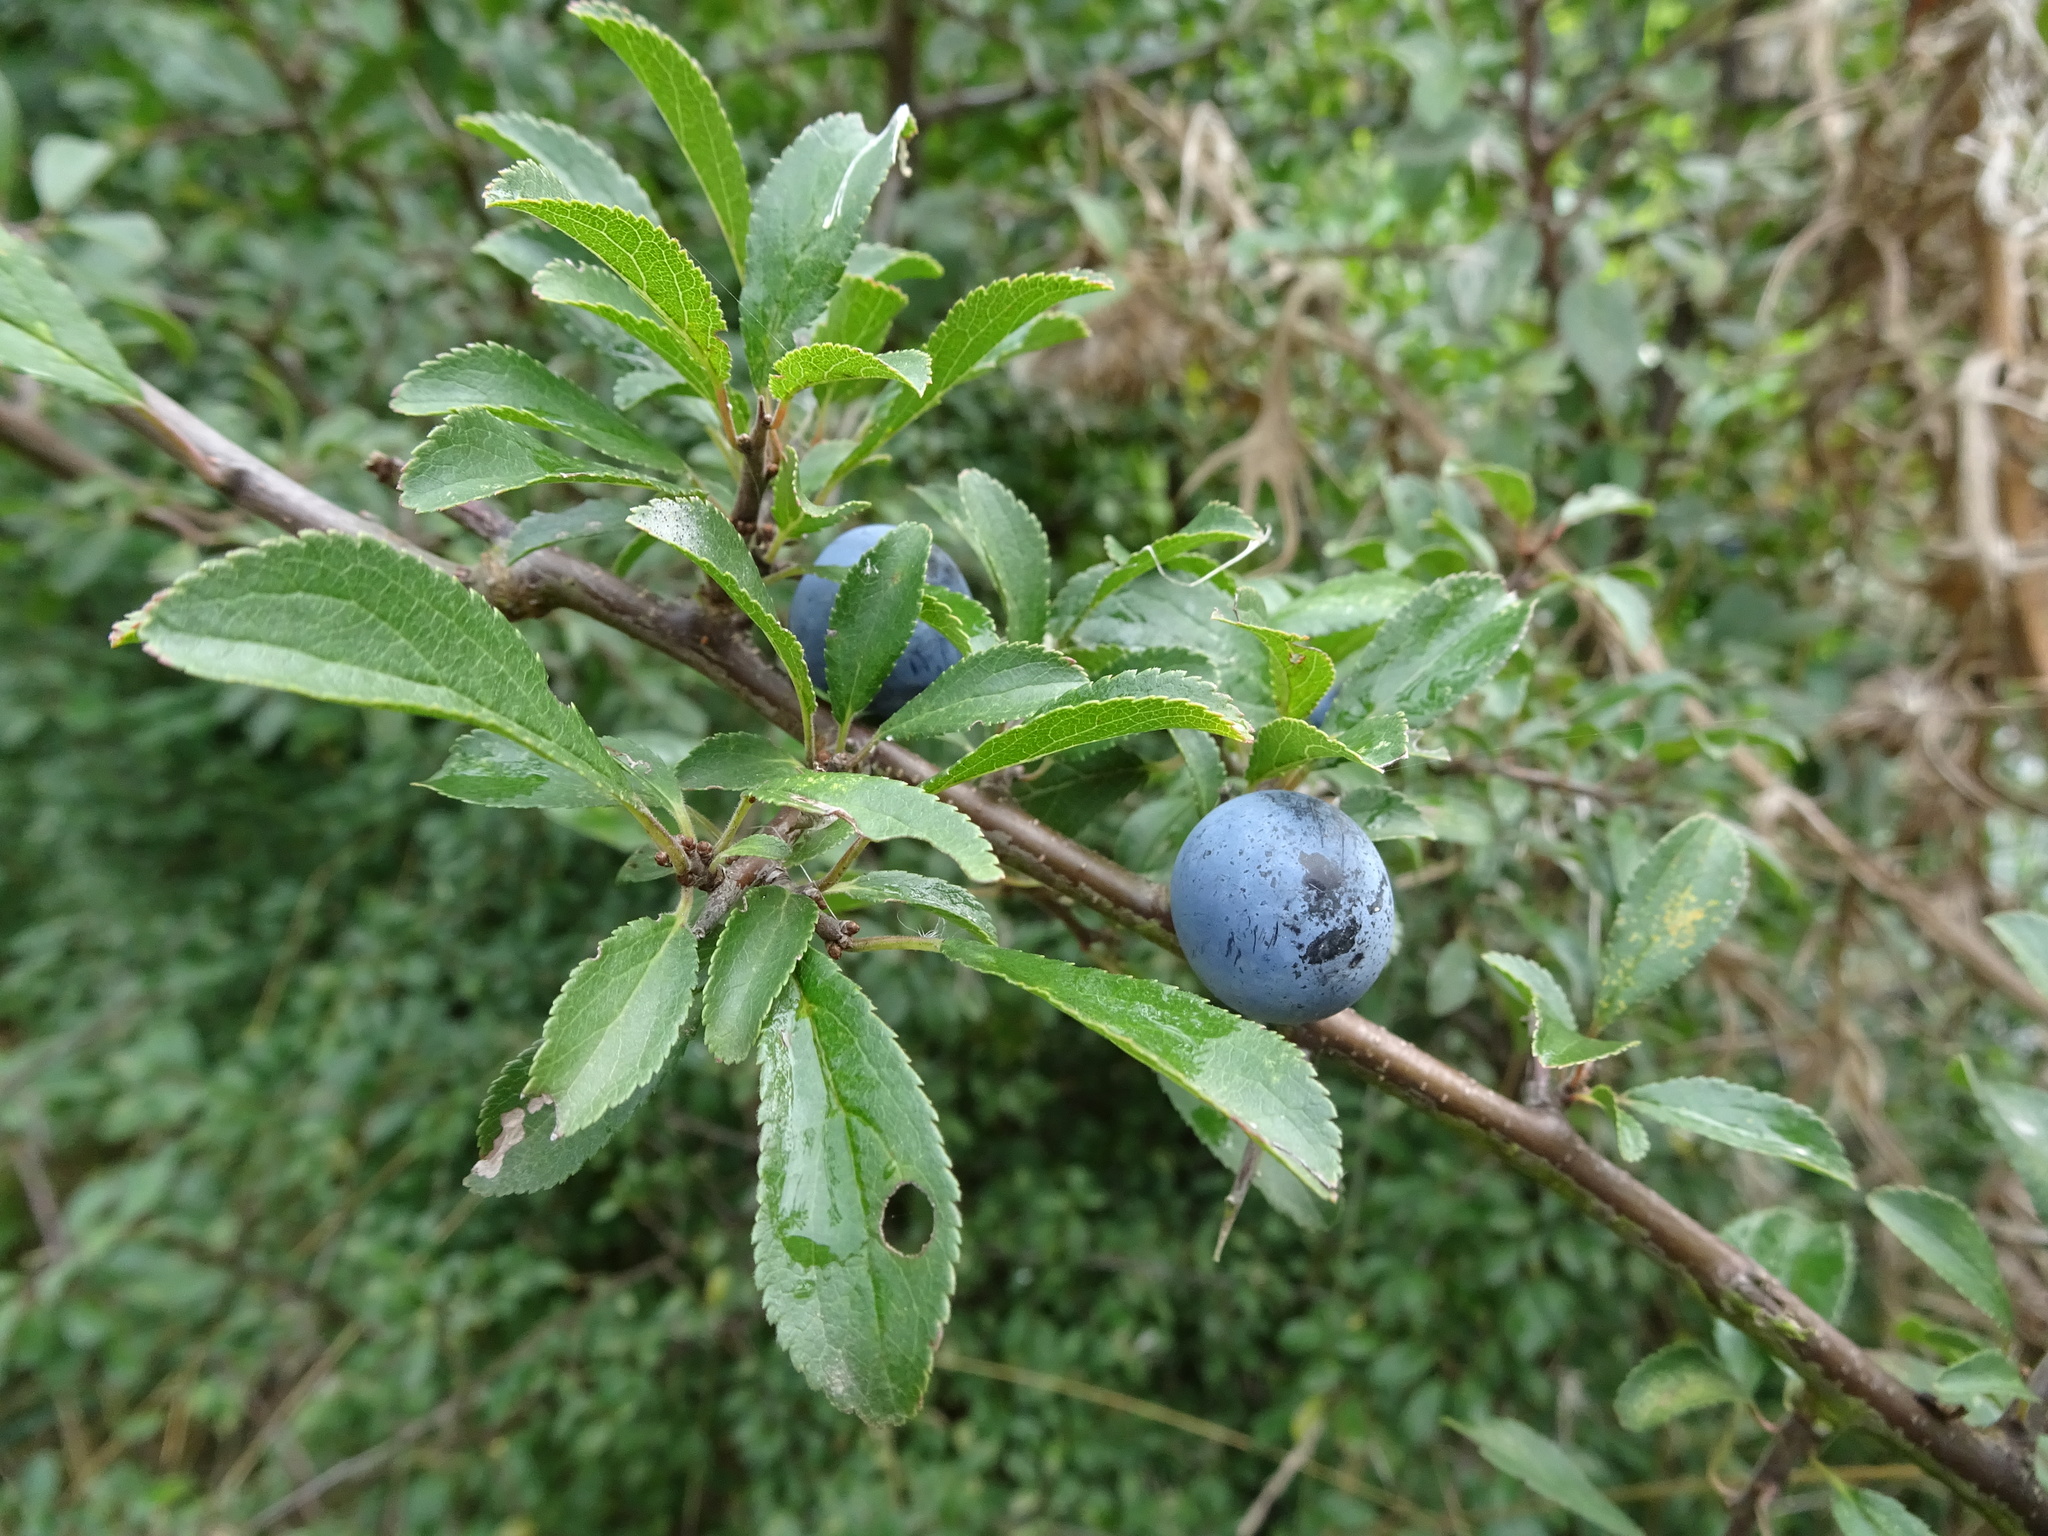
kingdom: Plantae
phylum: Tracheophyta
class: Magnoliopsida
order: Rosales
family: Rosaceae
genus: Prunus
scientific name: Prunus spinosa
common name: Blackthorn
